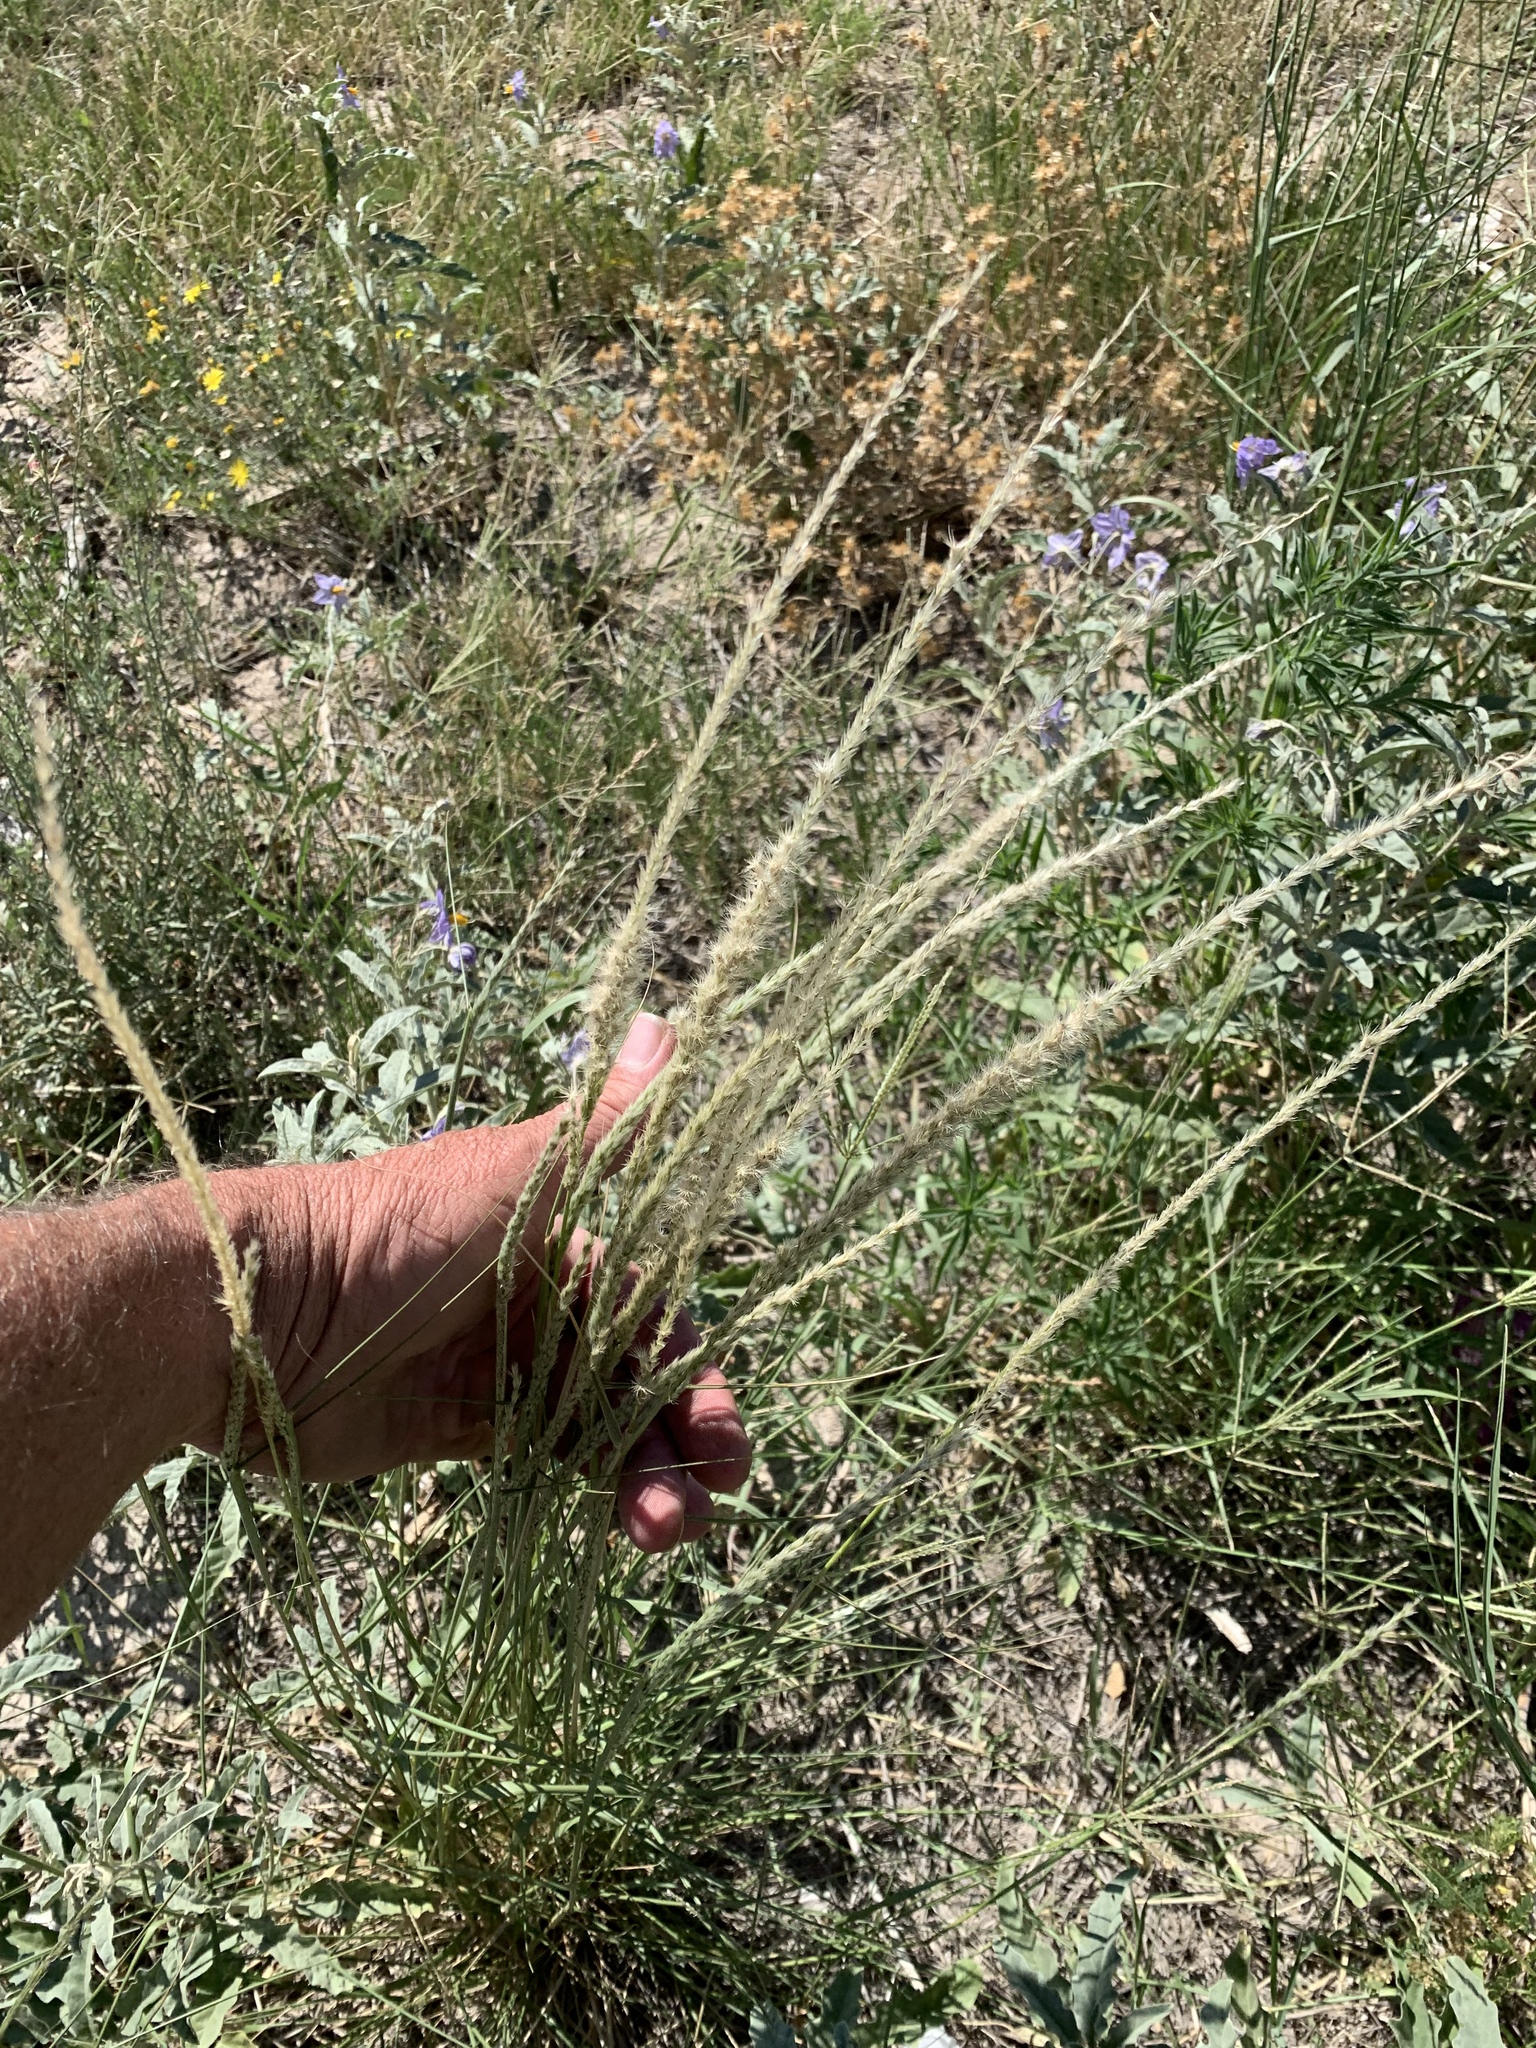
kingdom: Plantae
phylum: Tracheophyta
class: Liliopsida
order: Poales
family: Poaceae
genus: Pappophorum
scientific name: Pappophorum bicolor
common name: Pink pappus grass
